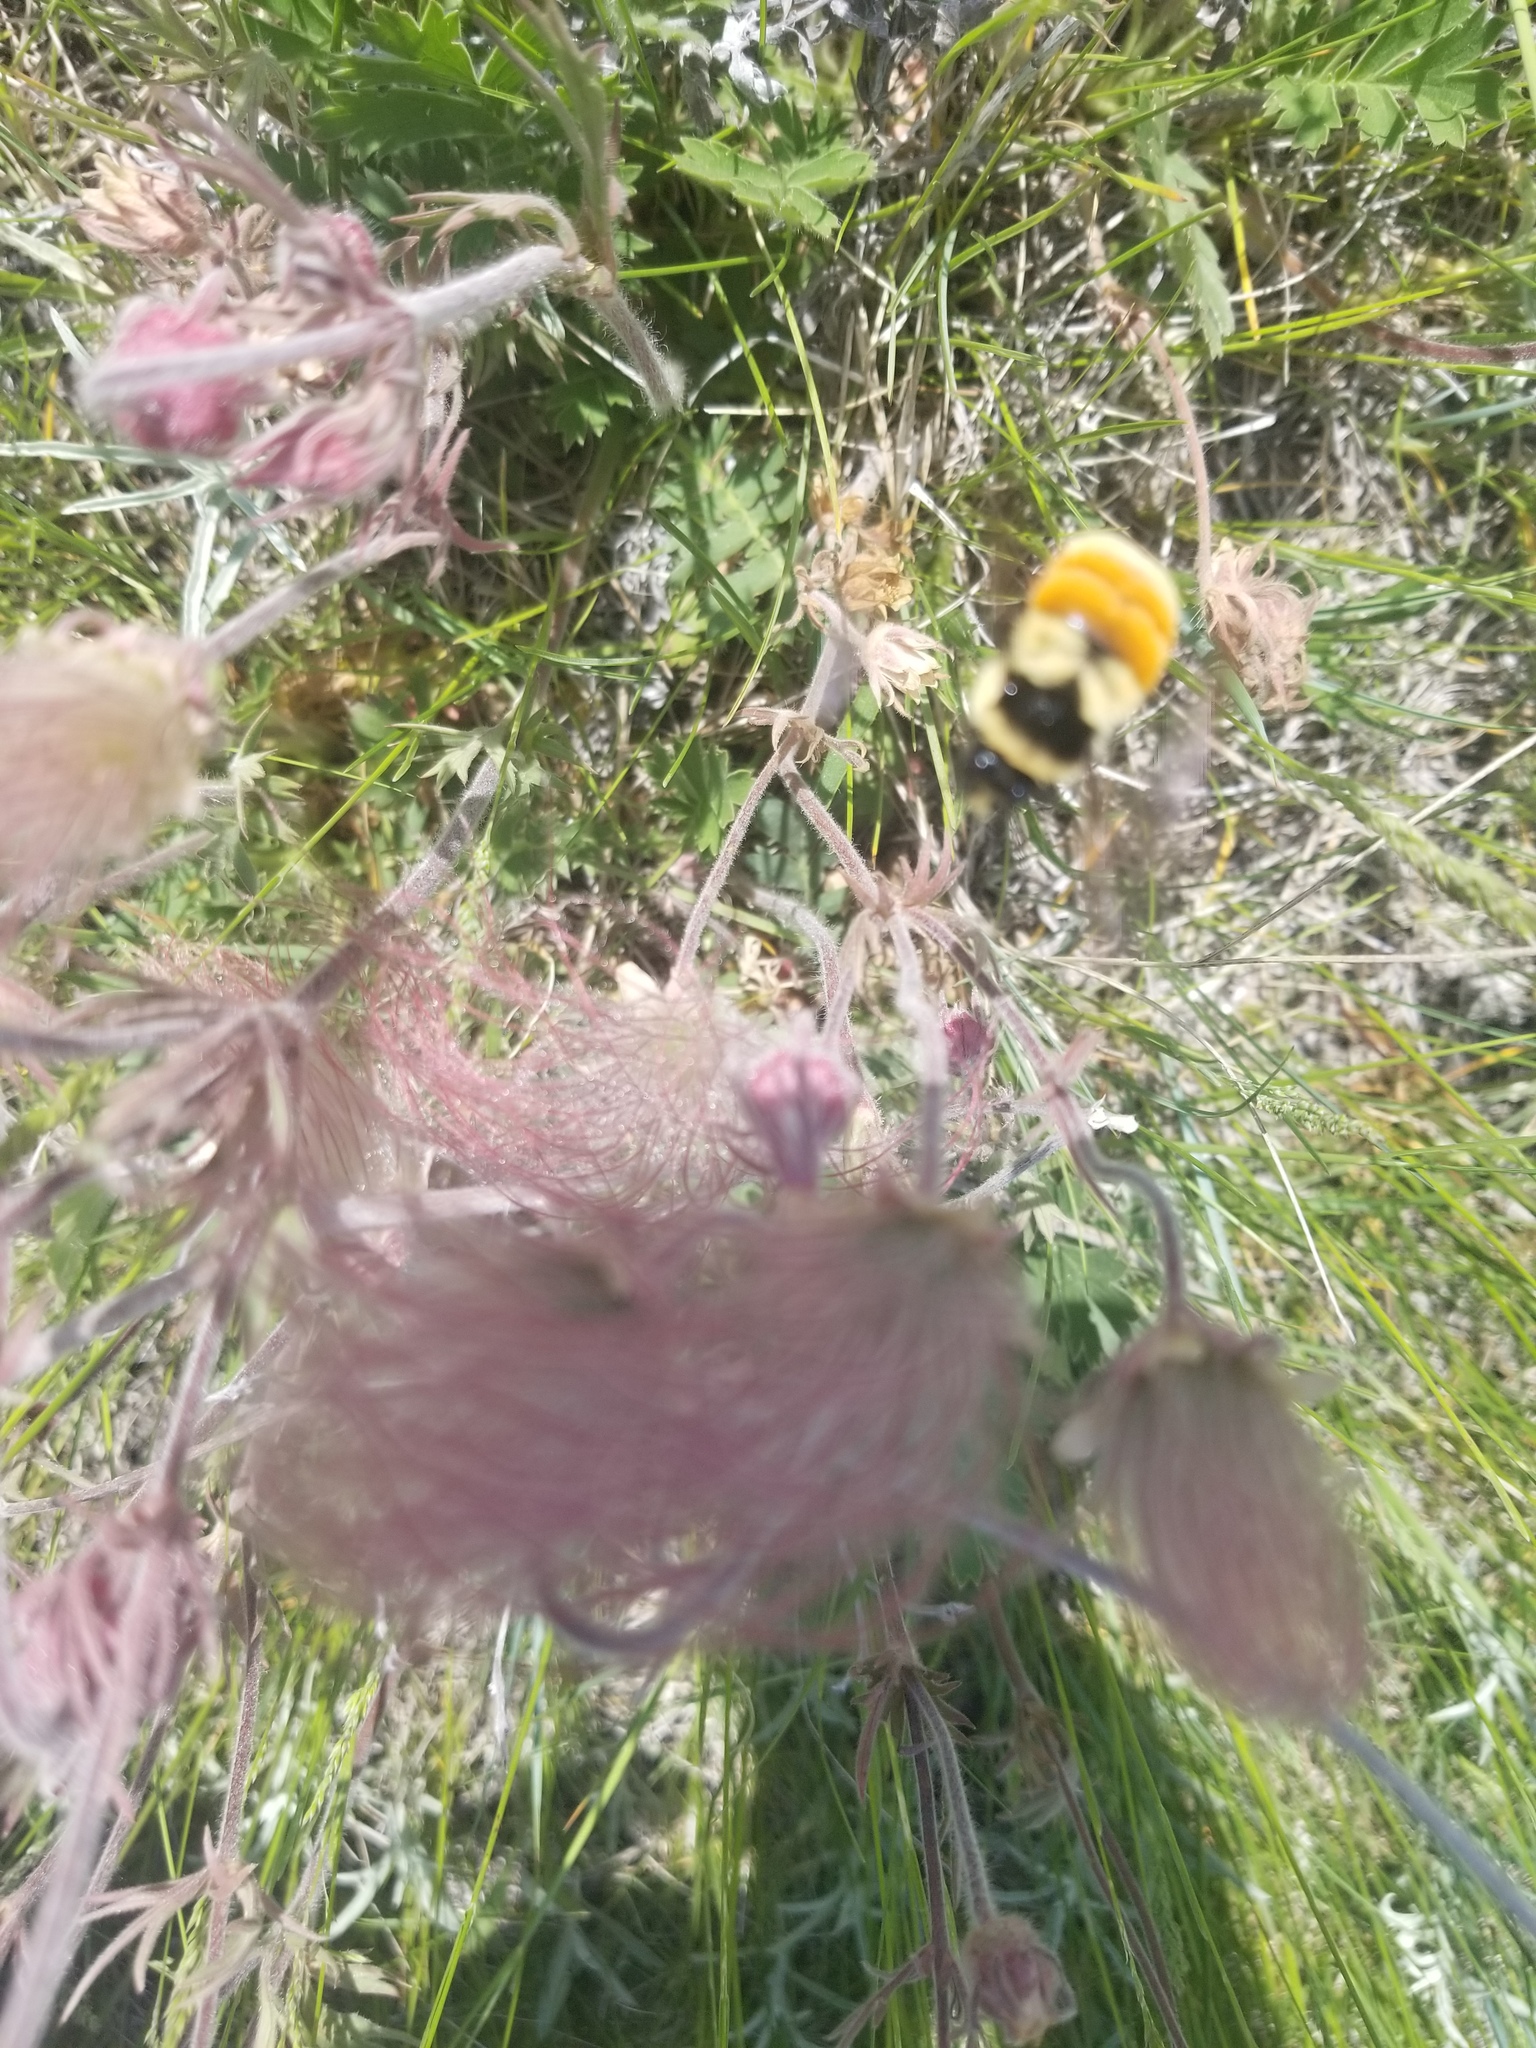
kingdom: Animalia
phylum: Arthropoda
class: Insecta
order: Hymenoptera
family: Apidae
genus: Bombus
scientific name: Bombus ternarius
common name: Tri-colored bumble bee
